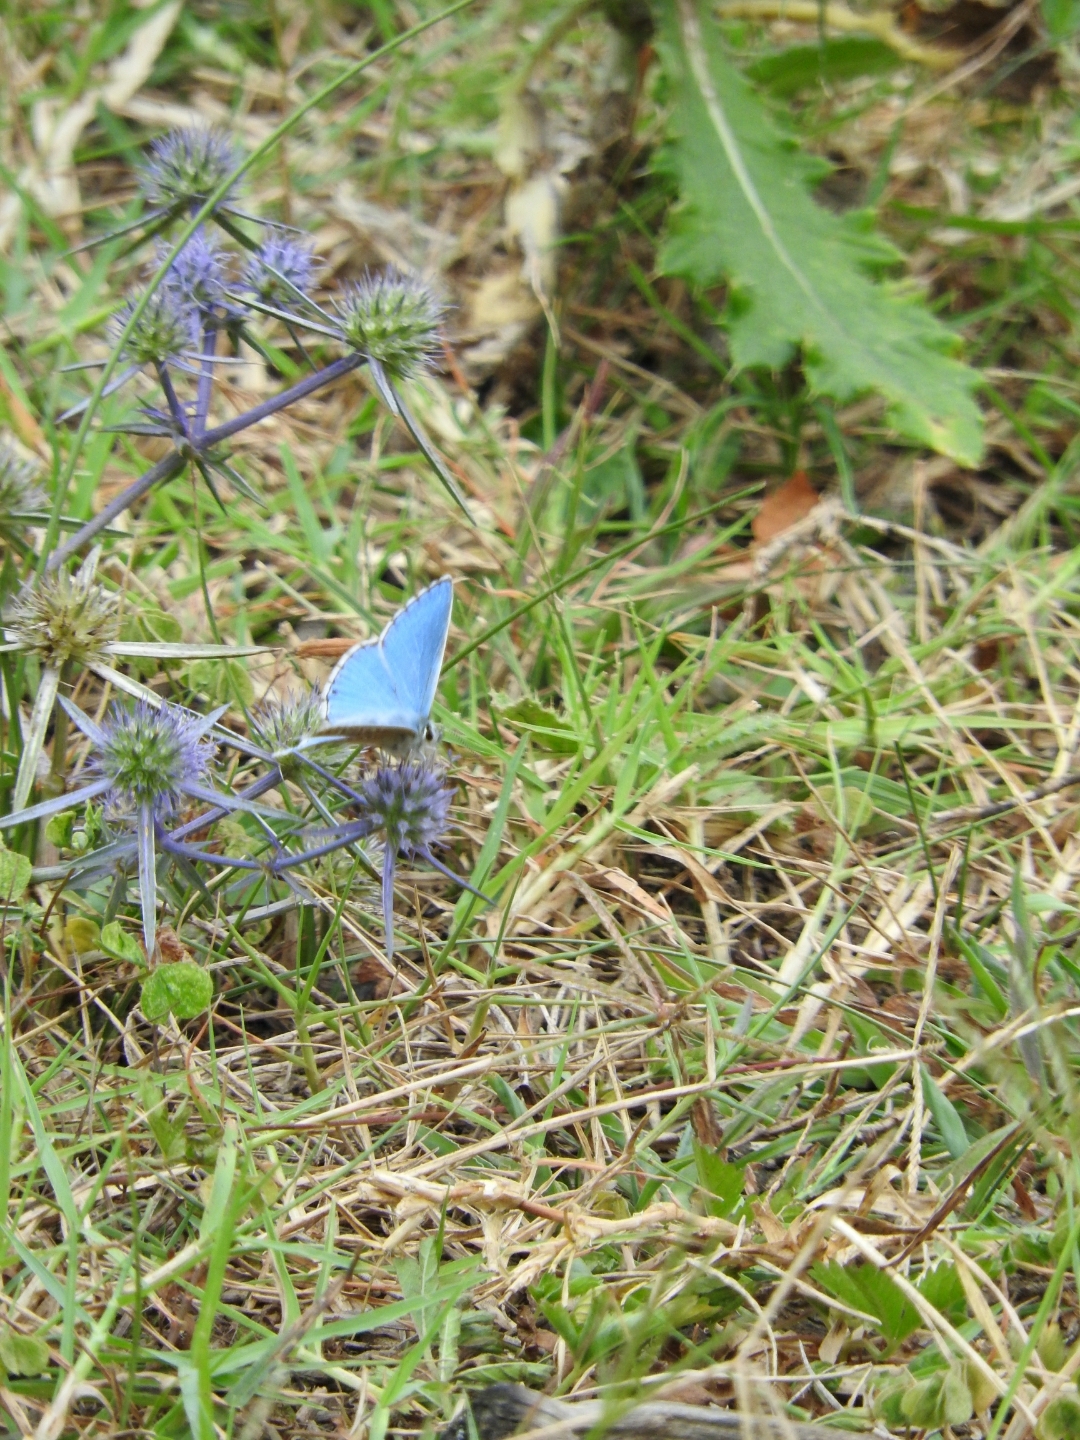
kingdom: Animalia
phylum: Arthropoda
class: Insecta
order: Lepidoptera
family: Lycaenidae
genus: Lysandra
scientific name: Lysandra bellargus
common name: Adonis blue
